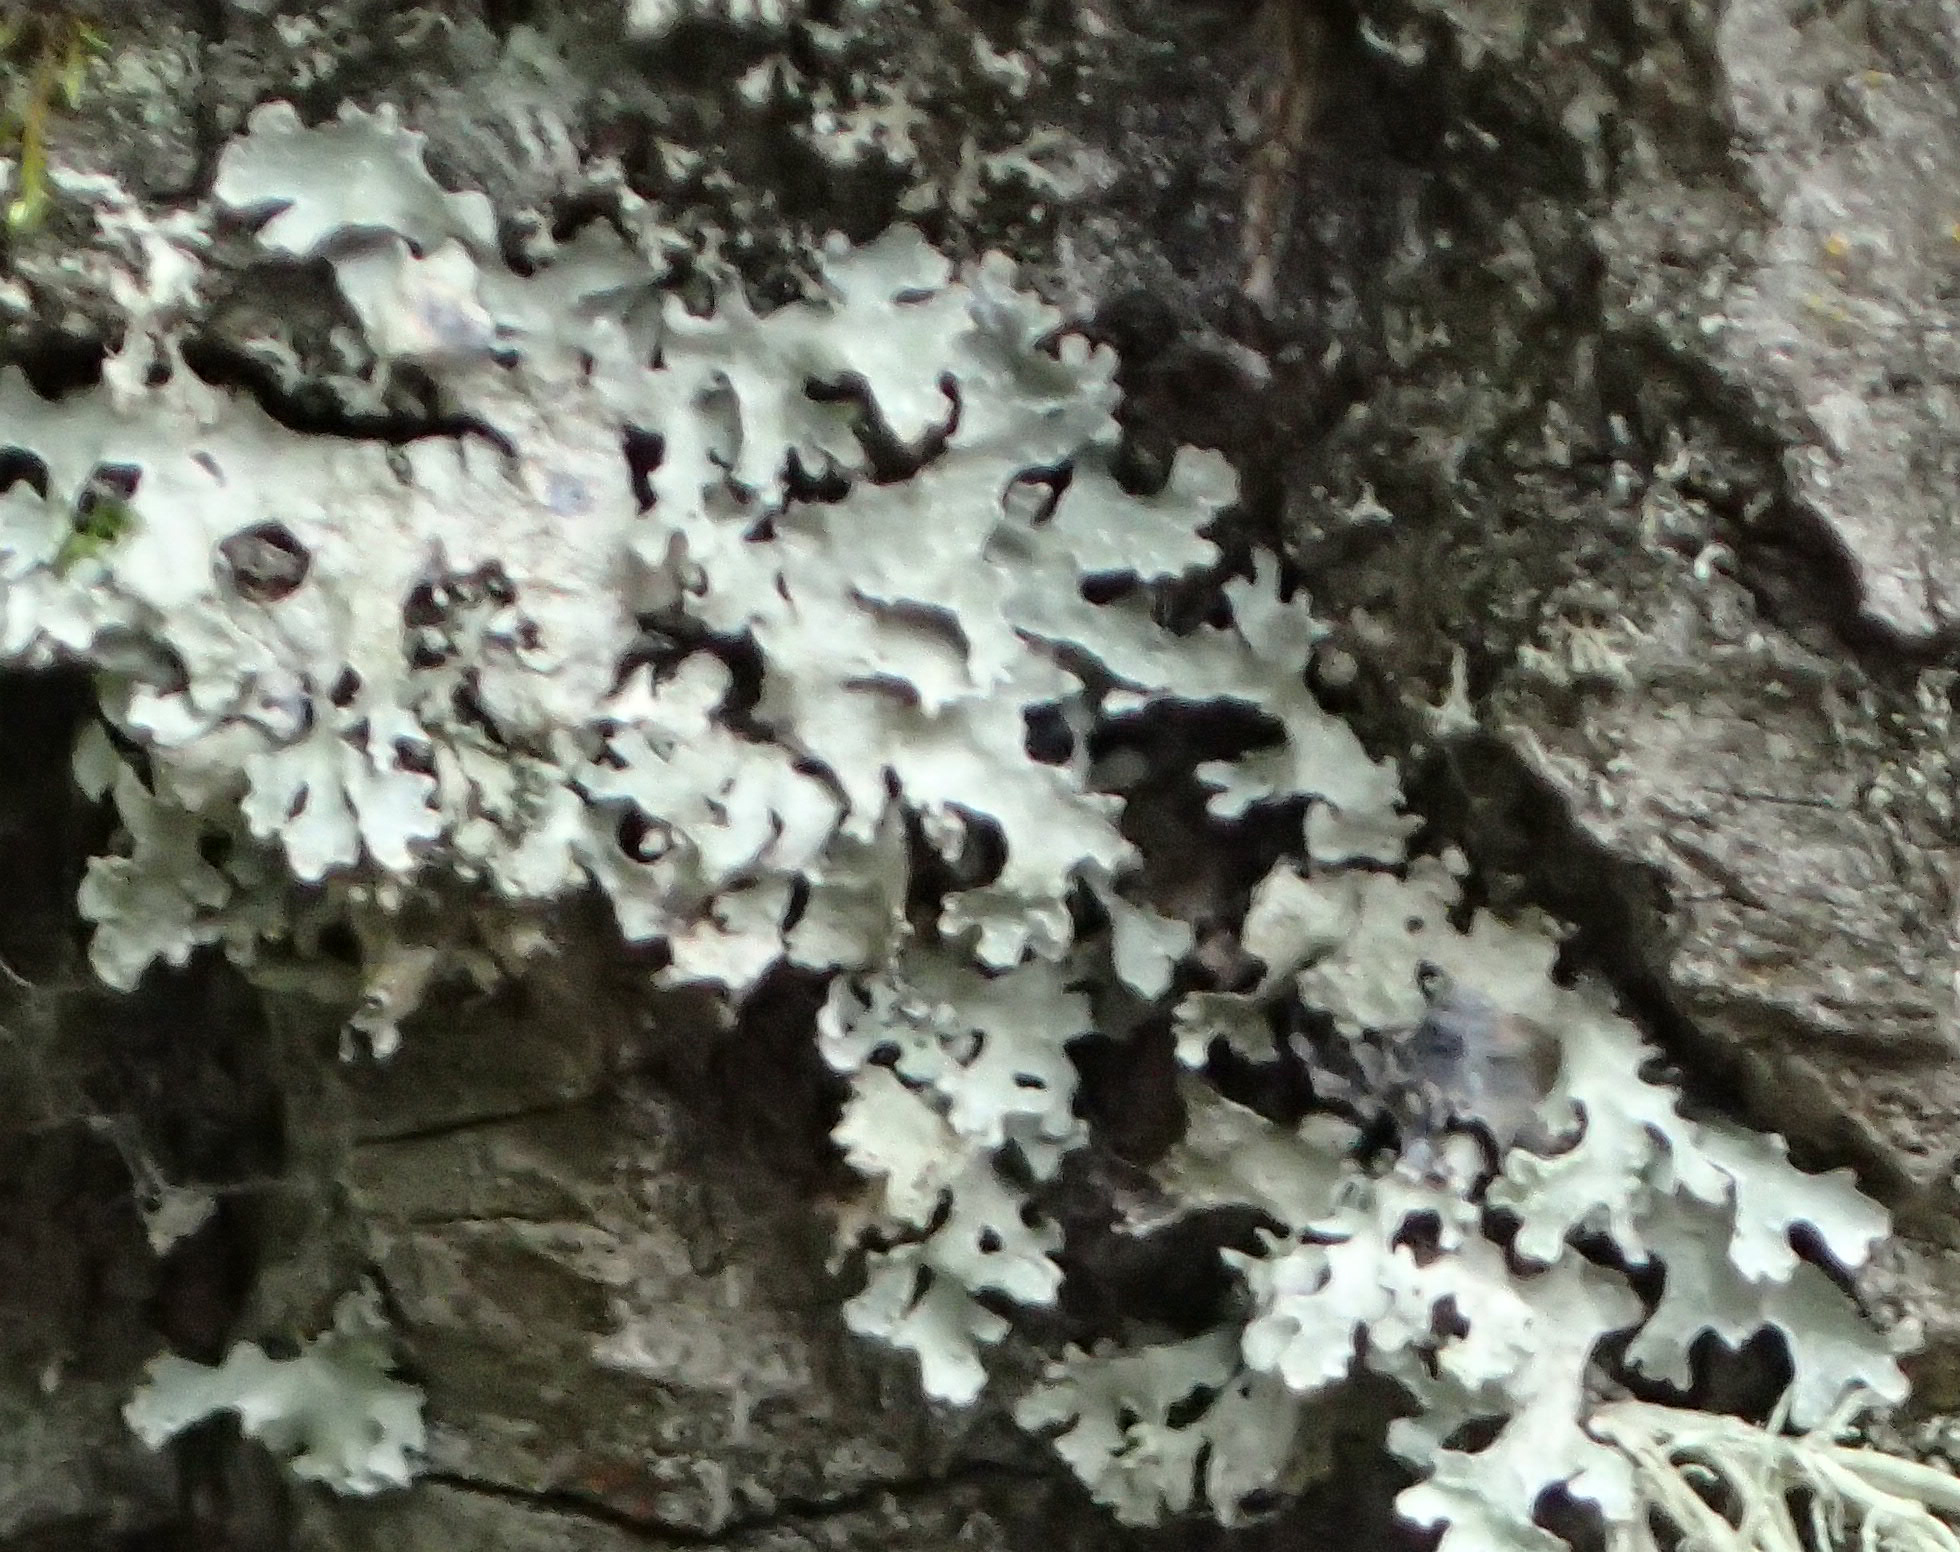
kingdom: Fungi
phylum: Ascomycota
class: Lecanoromycetes
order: Lecanorales
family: Parmeliaceae
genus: Parmelia
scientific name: Parmelia sulcata
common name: Netted shield lichen
